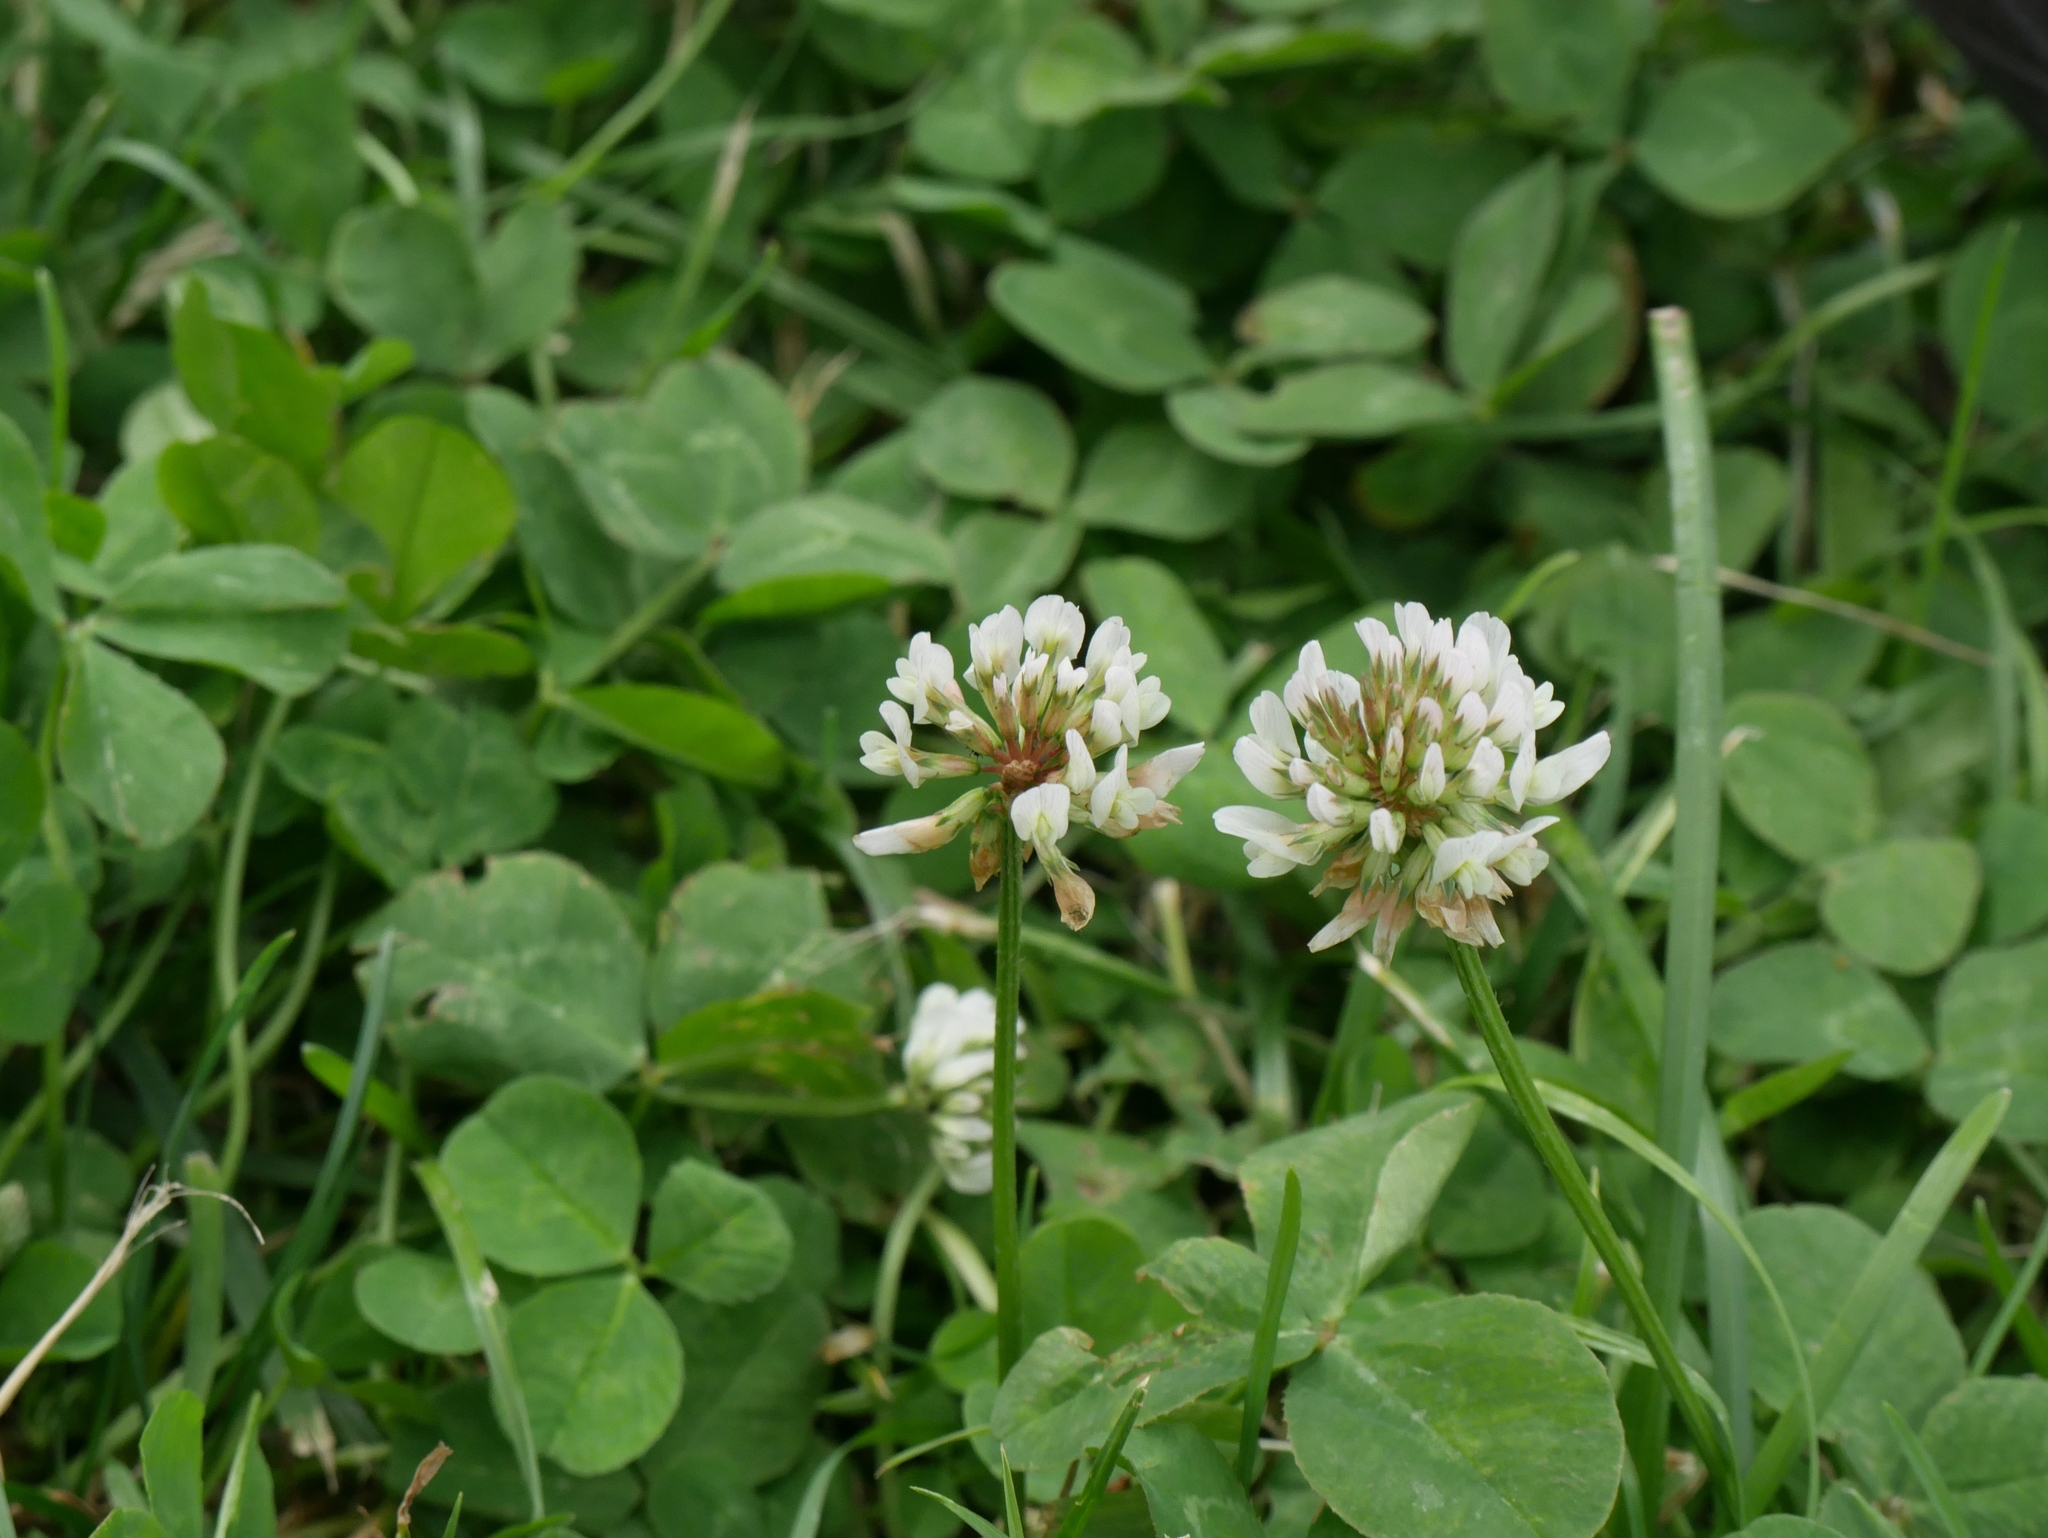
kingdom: Plantae
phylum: Tracheophyta
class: Magnoliopsida
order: Fabales
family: Fabaceae
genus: Trifolium
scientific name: Trifolium repens
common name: White clover
